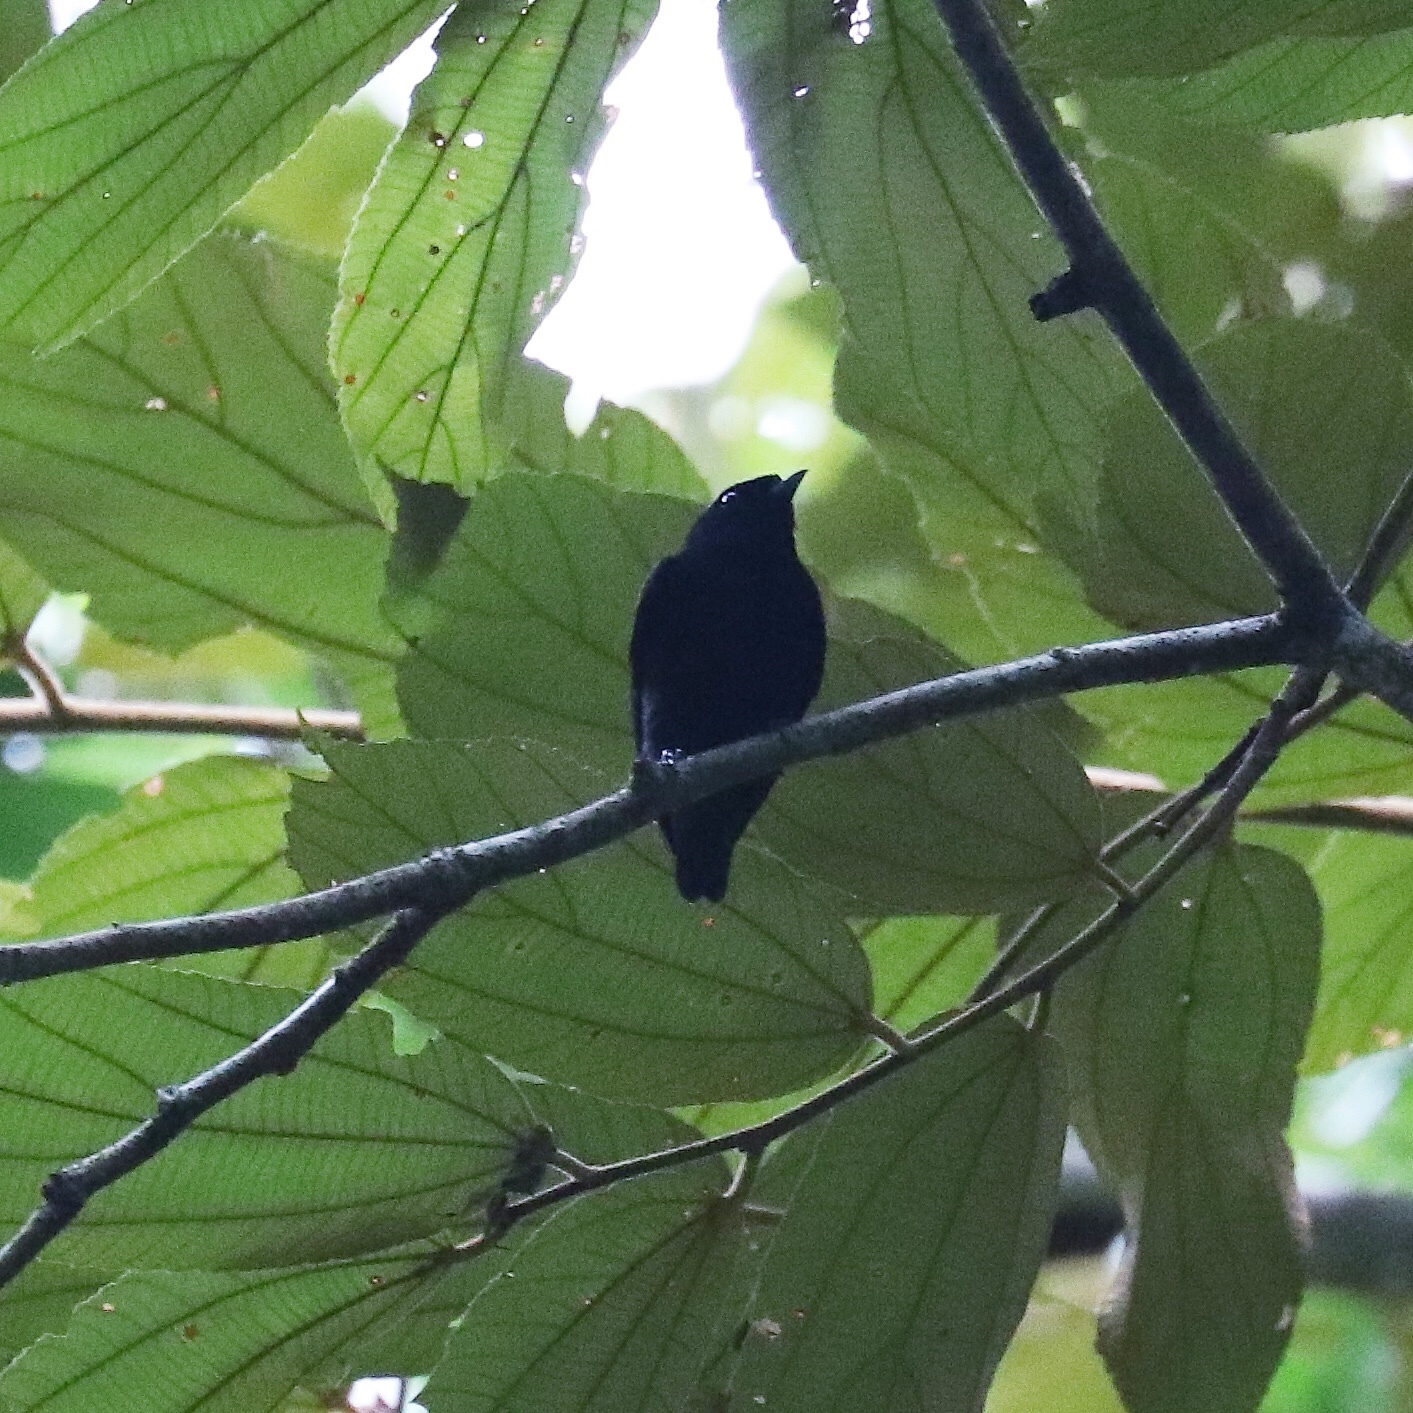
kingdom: Animalia
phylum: Chordata
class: Aves
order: Passeriformes
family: Pipridae
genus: Lepidothrix
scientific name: Lepidothrix coronata
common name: Blue-crowned manakin
